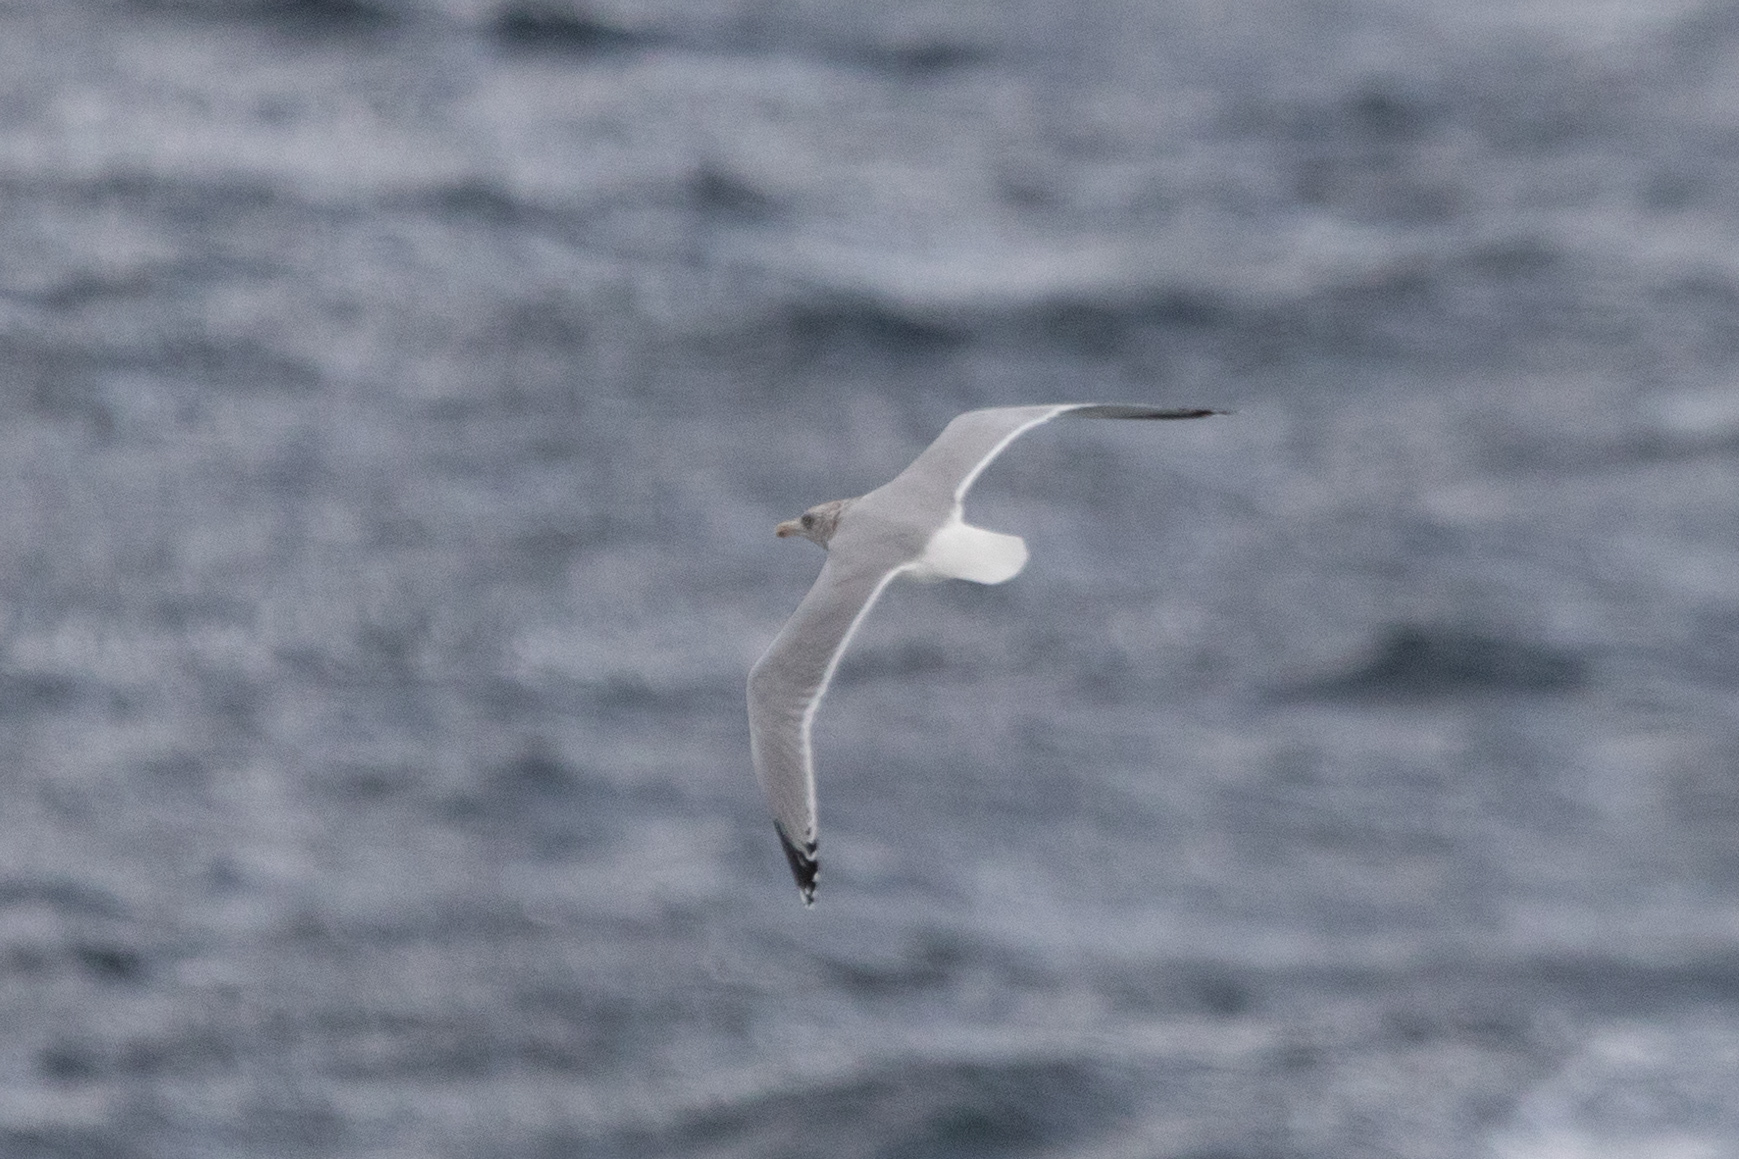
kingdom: Animalia
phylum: Chordata
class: Aves
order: Charadriiformes
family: Laridae
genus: Larus
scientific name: Larus argentatus
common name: Herring gull
